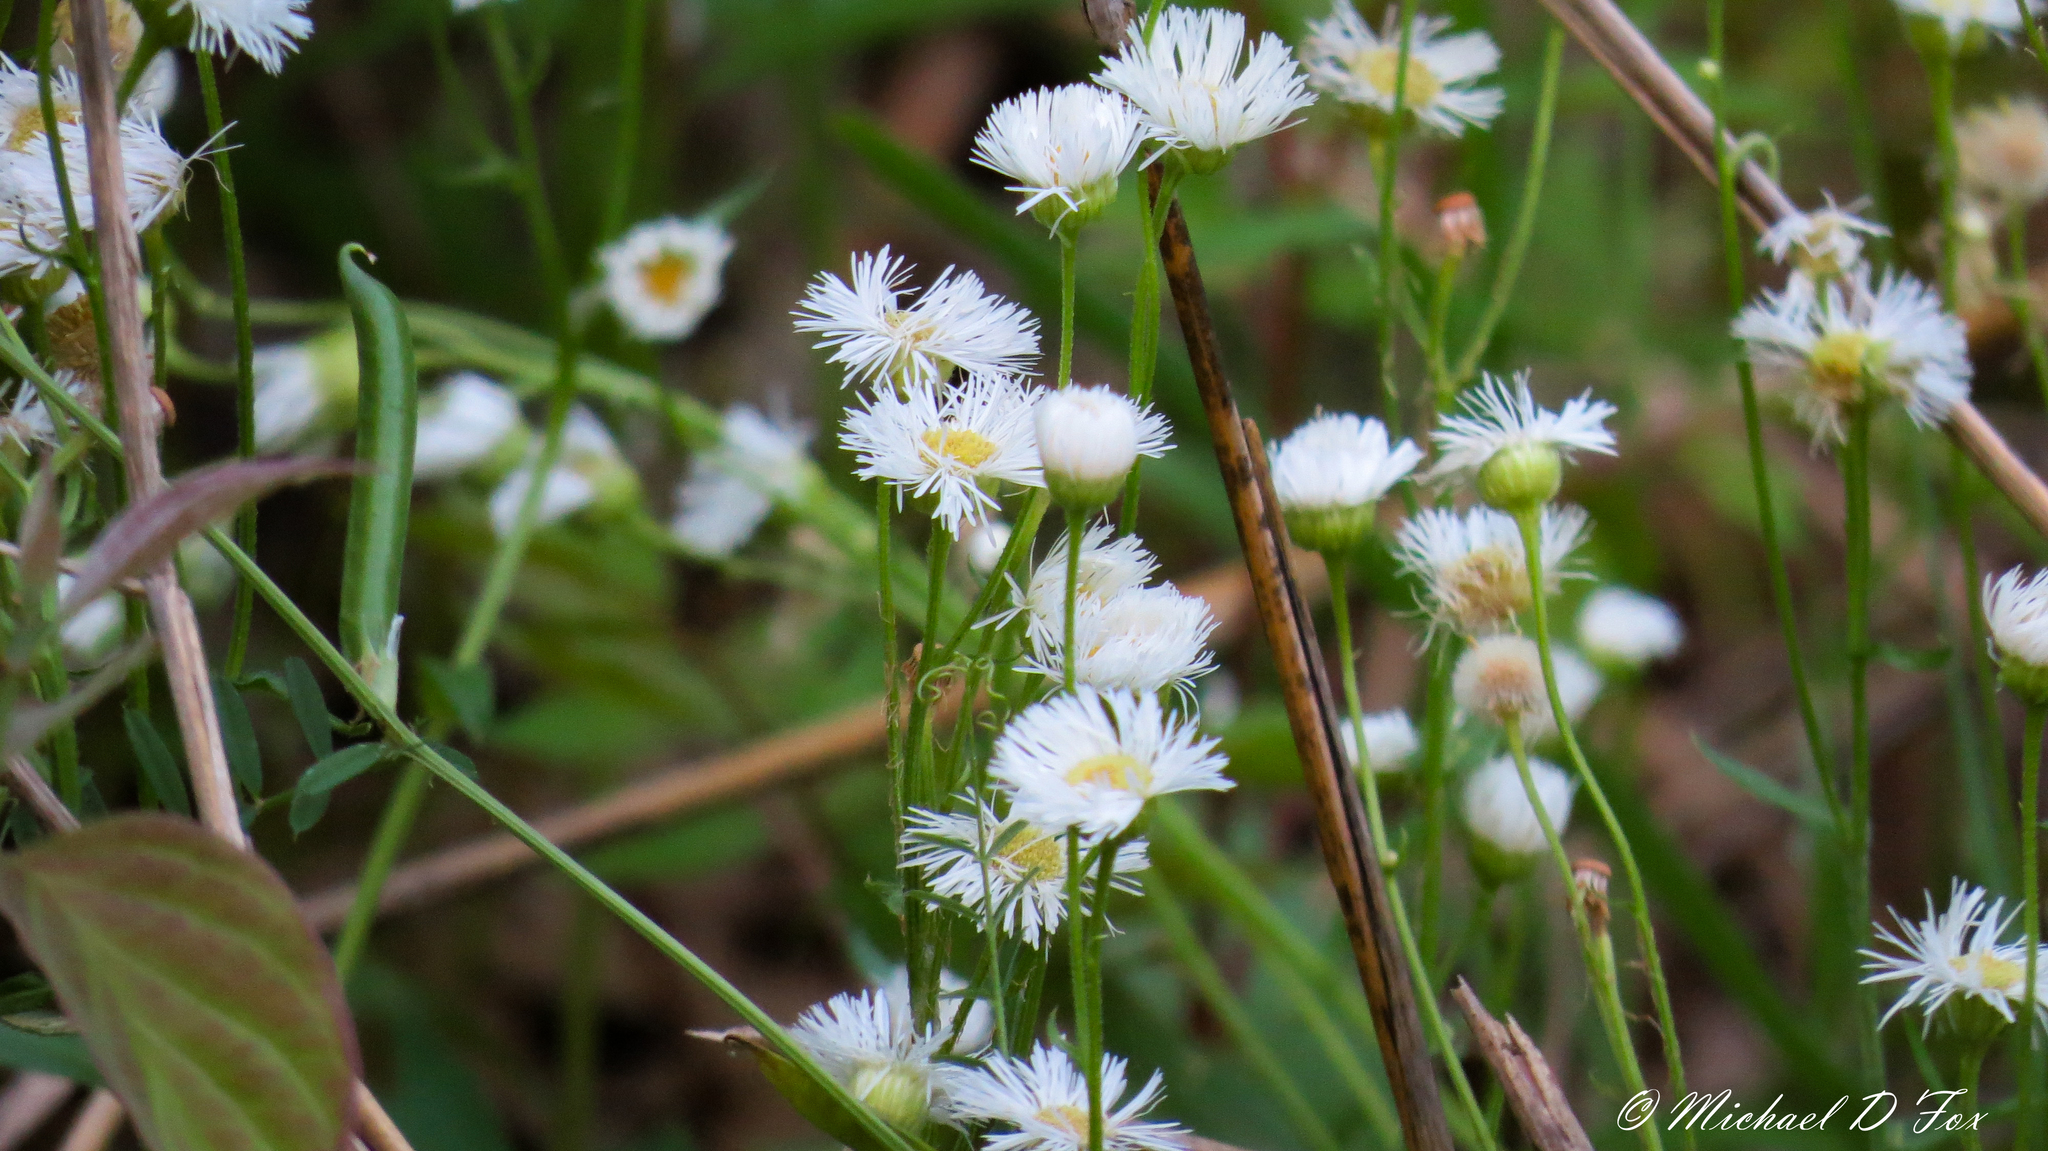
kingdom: Plantae
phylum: Tracheophyta
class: Magnoliopsida
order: Asterales
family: Asteraceae
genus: Erigeron
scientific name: Erigeron strigosus
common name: Common eastern fleabane
